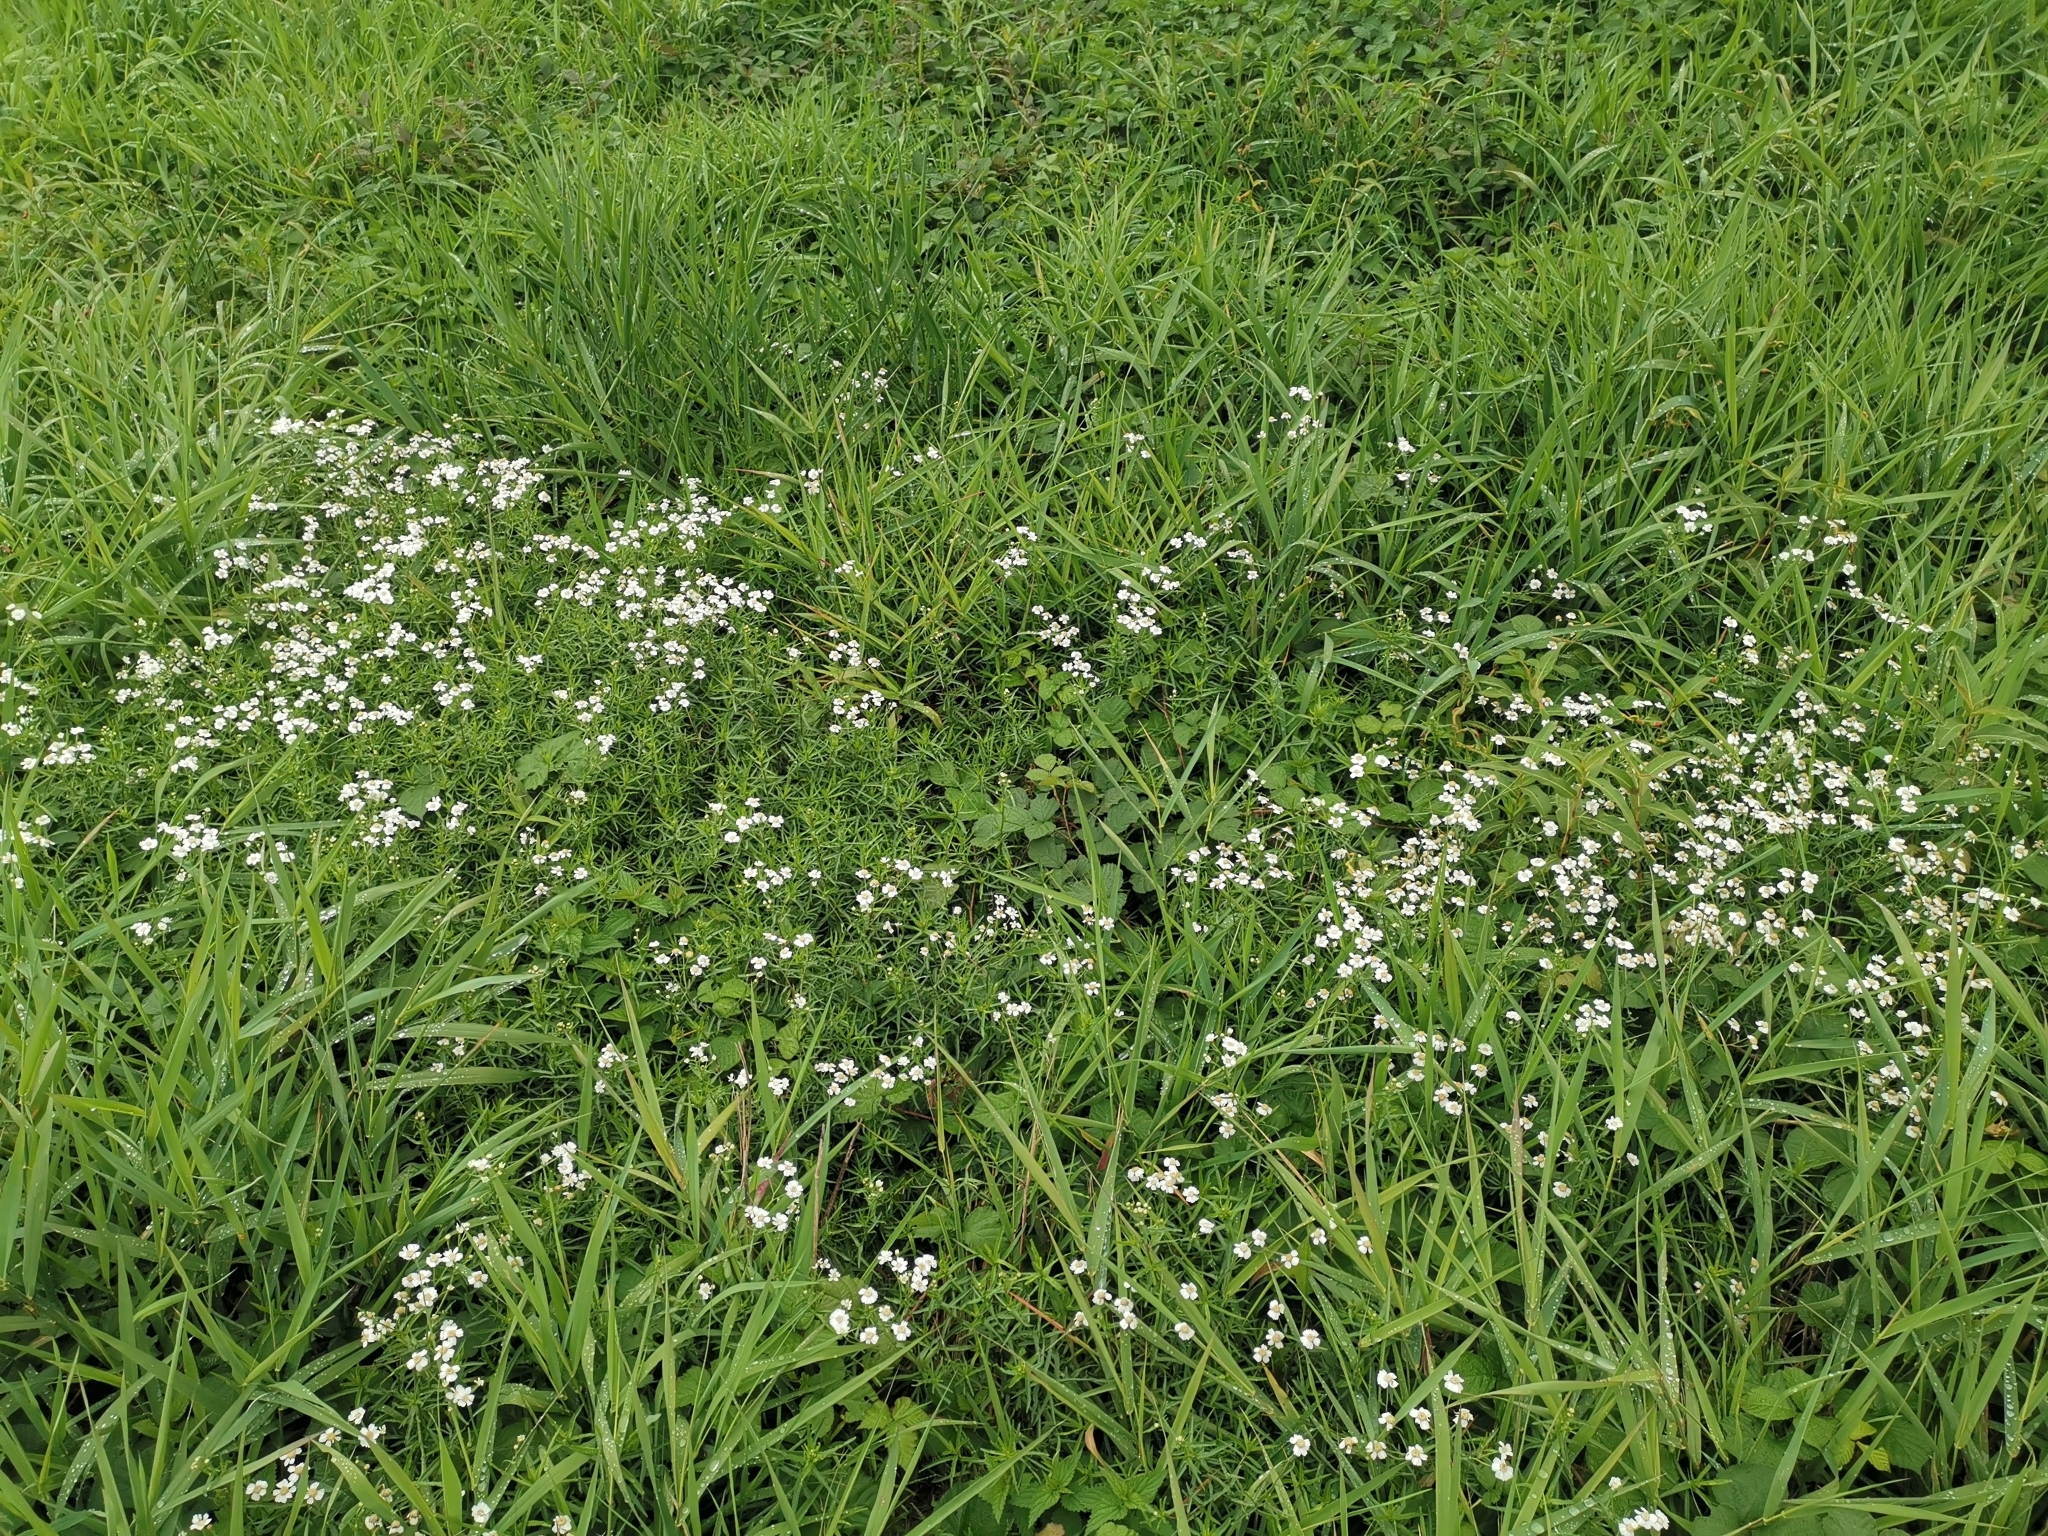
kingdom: Plantae
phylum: Tracheophyta
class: Magnoliopsida
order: Asterales
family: Asteraceae
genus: Achillea
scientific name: Achillea ptarmica
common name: Sneezeweed
